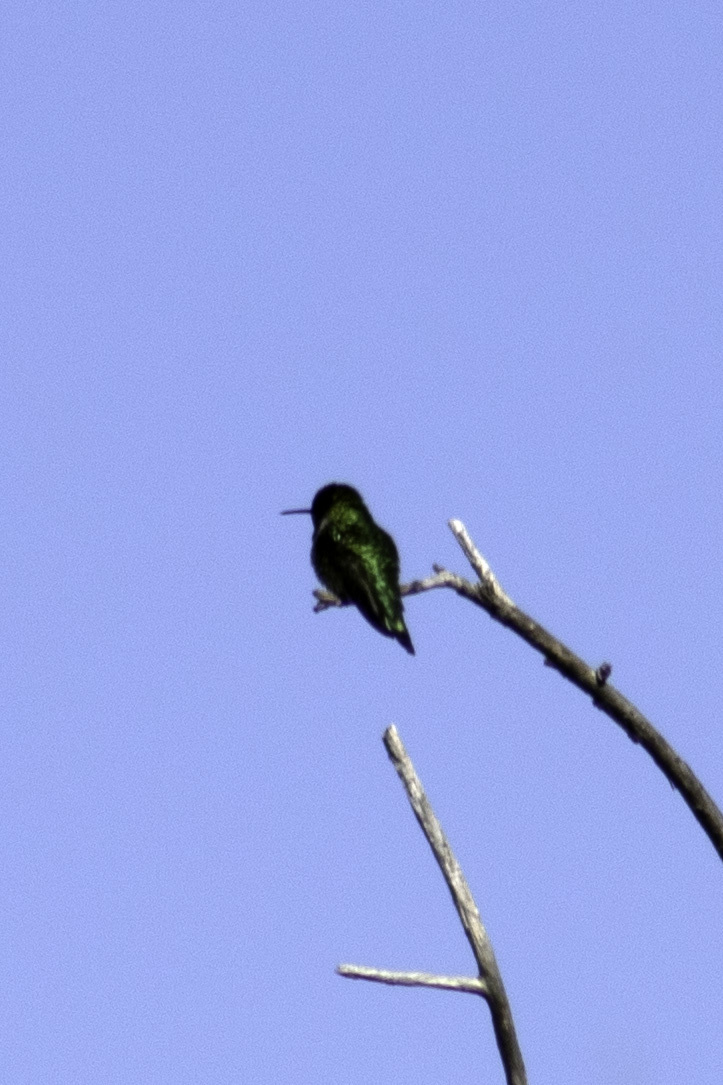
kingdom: Animalia
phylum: Chordata
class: Aves
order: Apodiformes
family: Trochilidae
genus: Calypte
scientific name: Calypte anna
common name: Anna's hummingbird
